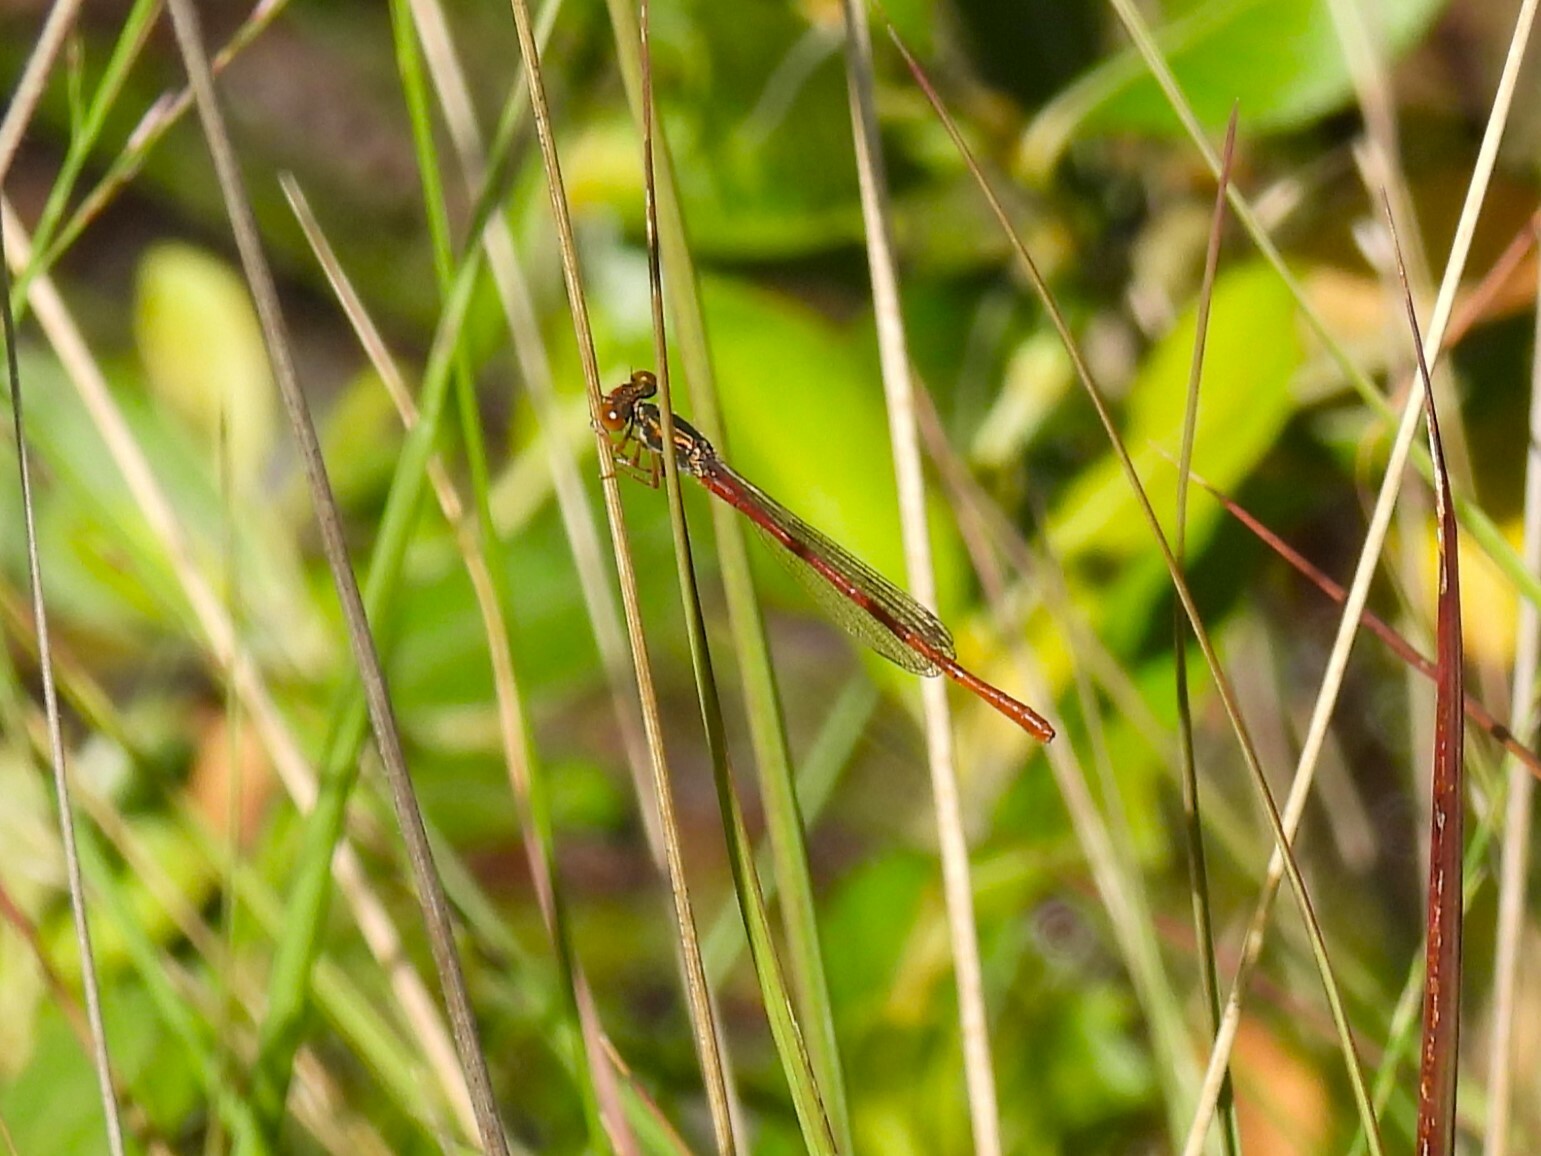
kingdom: Animalia
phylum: Arthropoda
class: Insecta
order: Odonata
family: Coenagrionidae
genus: Ceriagrion
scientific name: Ceriagrion tenellum
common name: Small red damselfly
